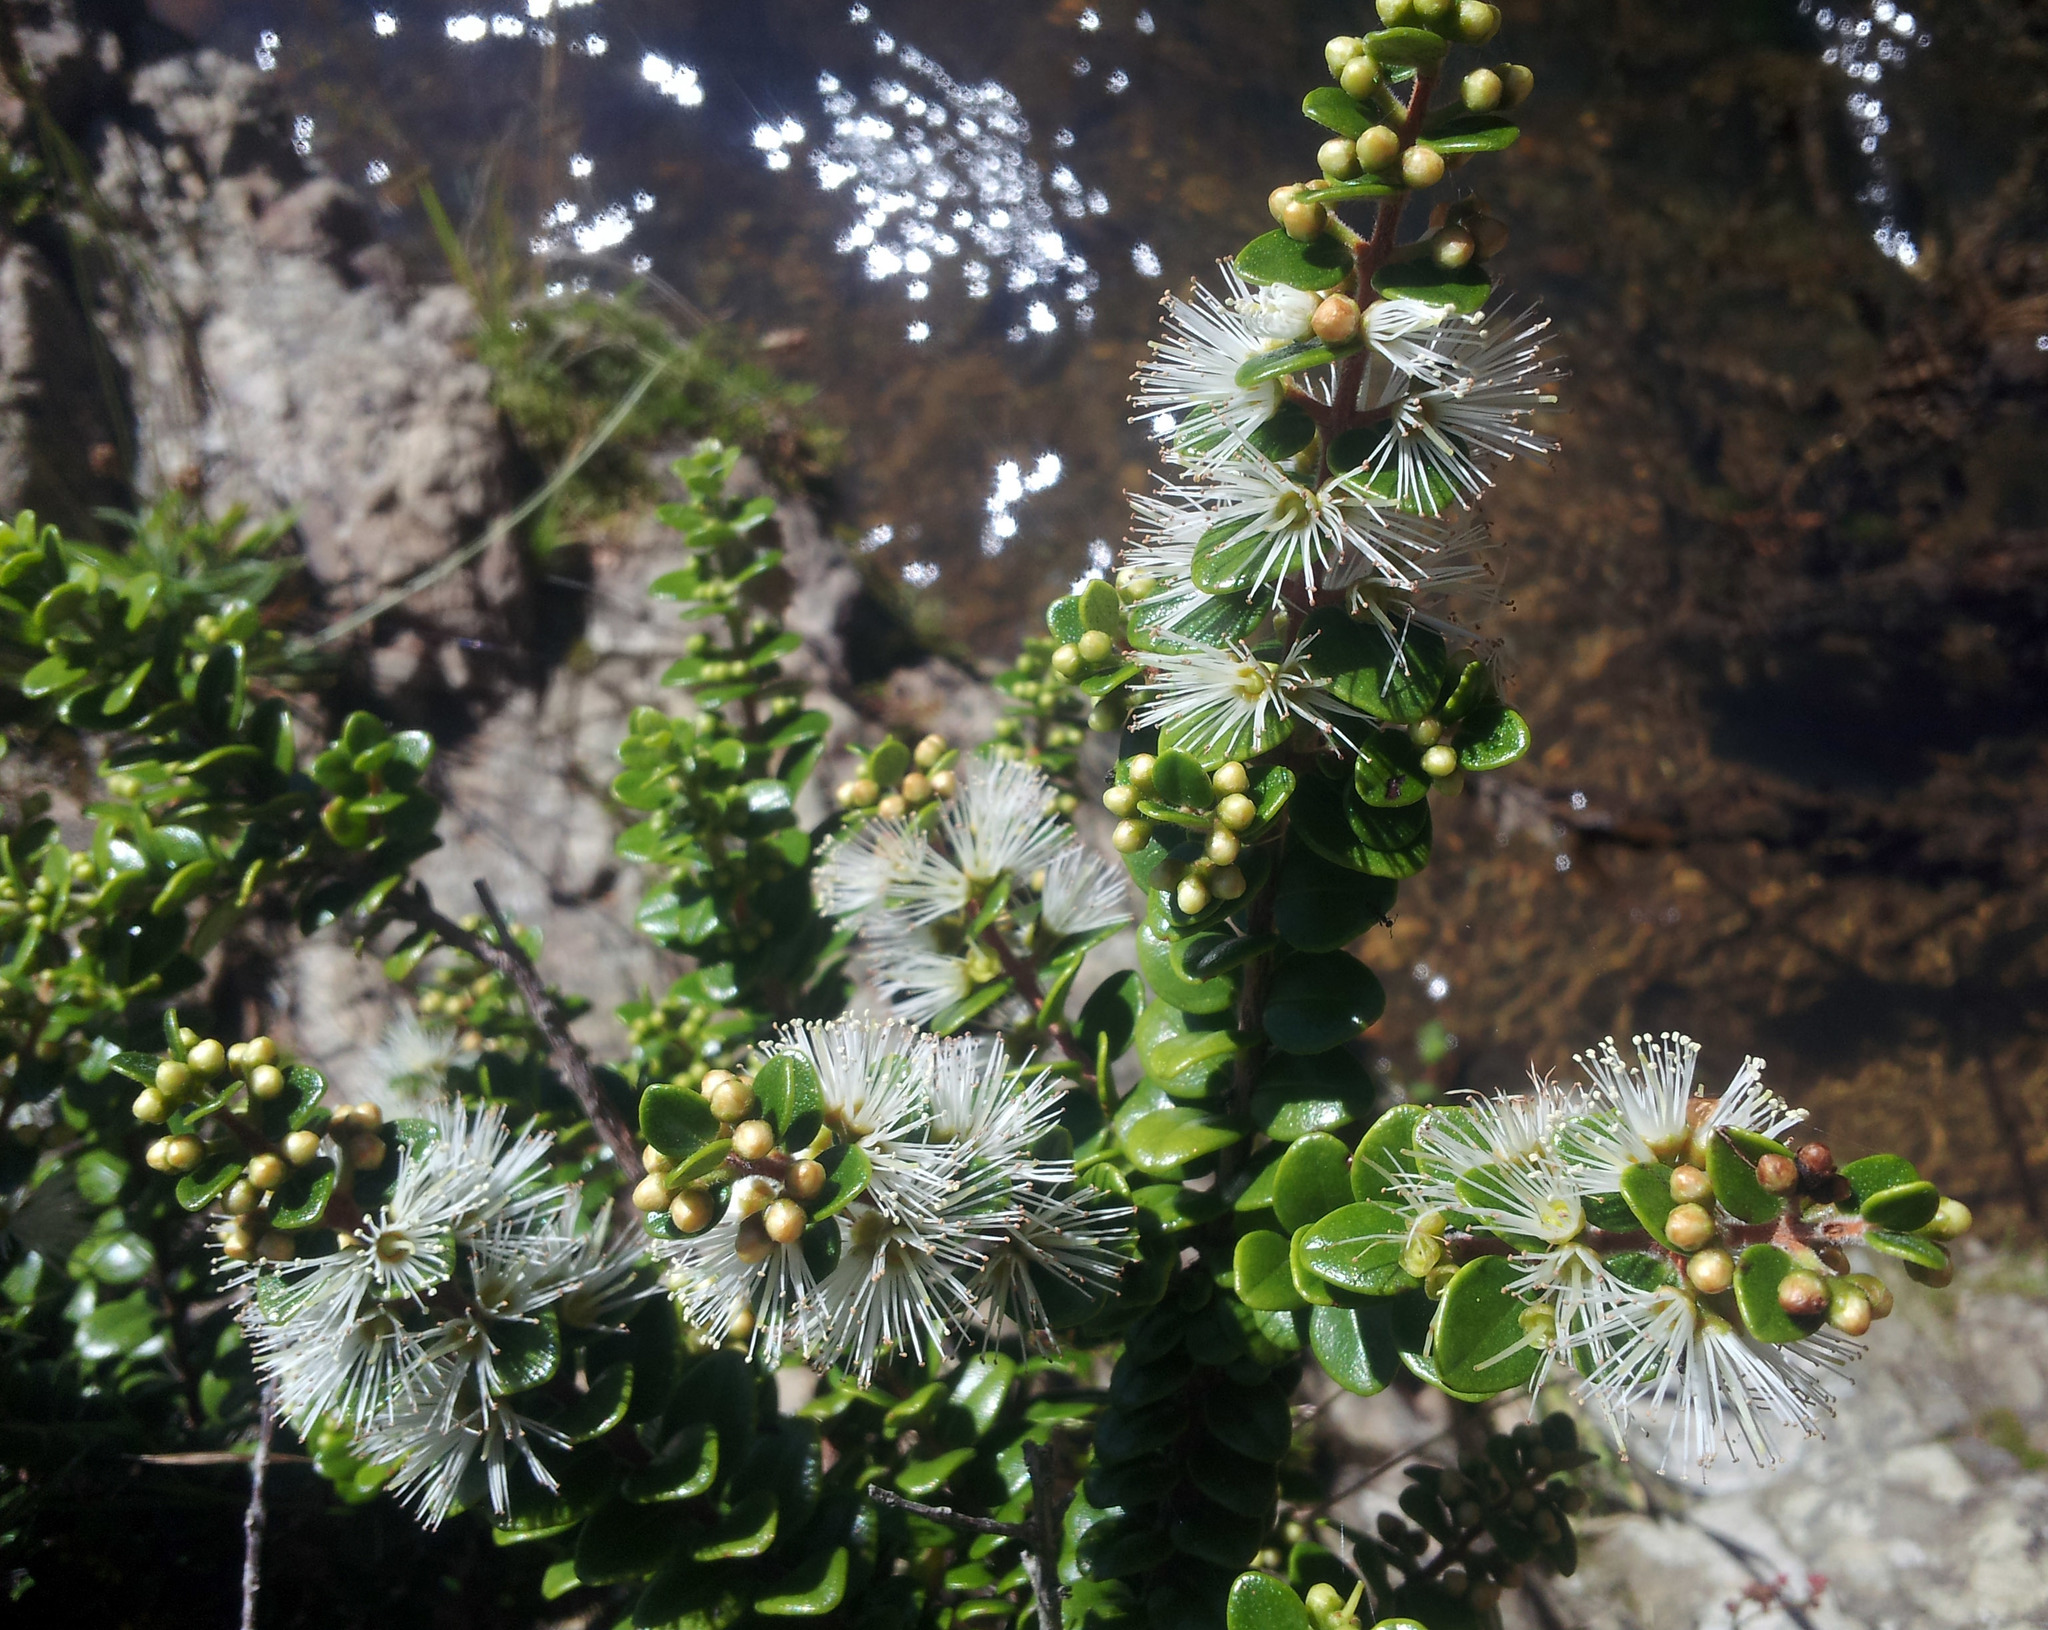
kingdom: Plantae
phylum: Tracheophyta
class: Magnoliopsida
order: Myrtales
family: Myrtaceae
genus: Metrosideros
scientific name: Metrosideros perforata
